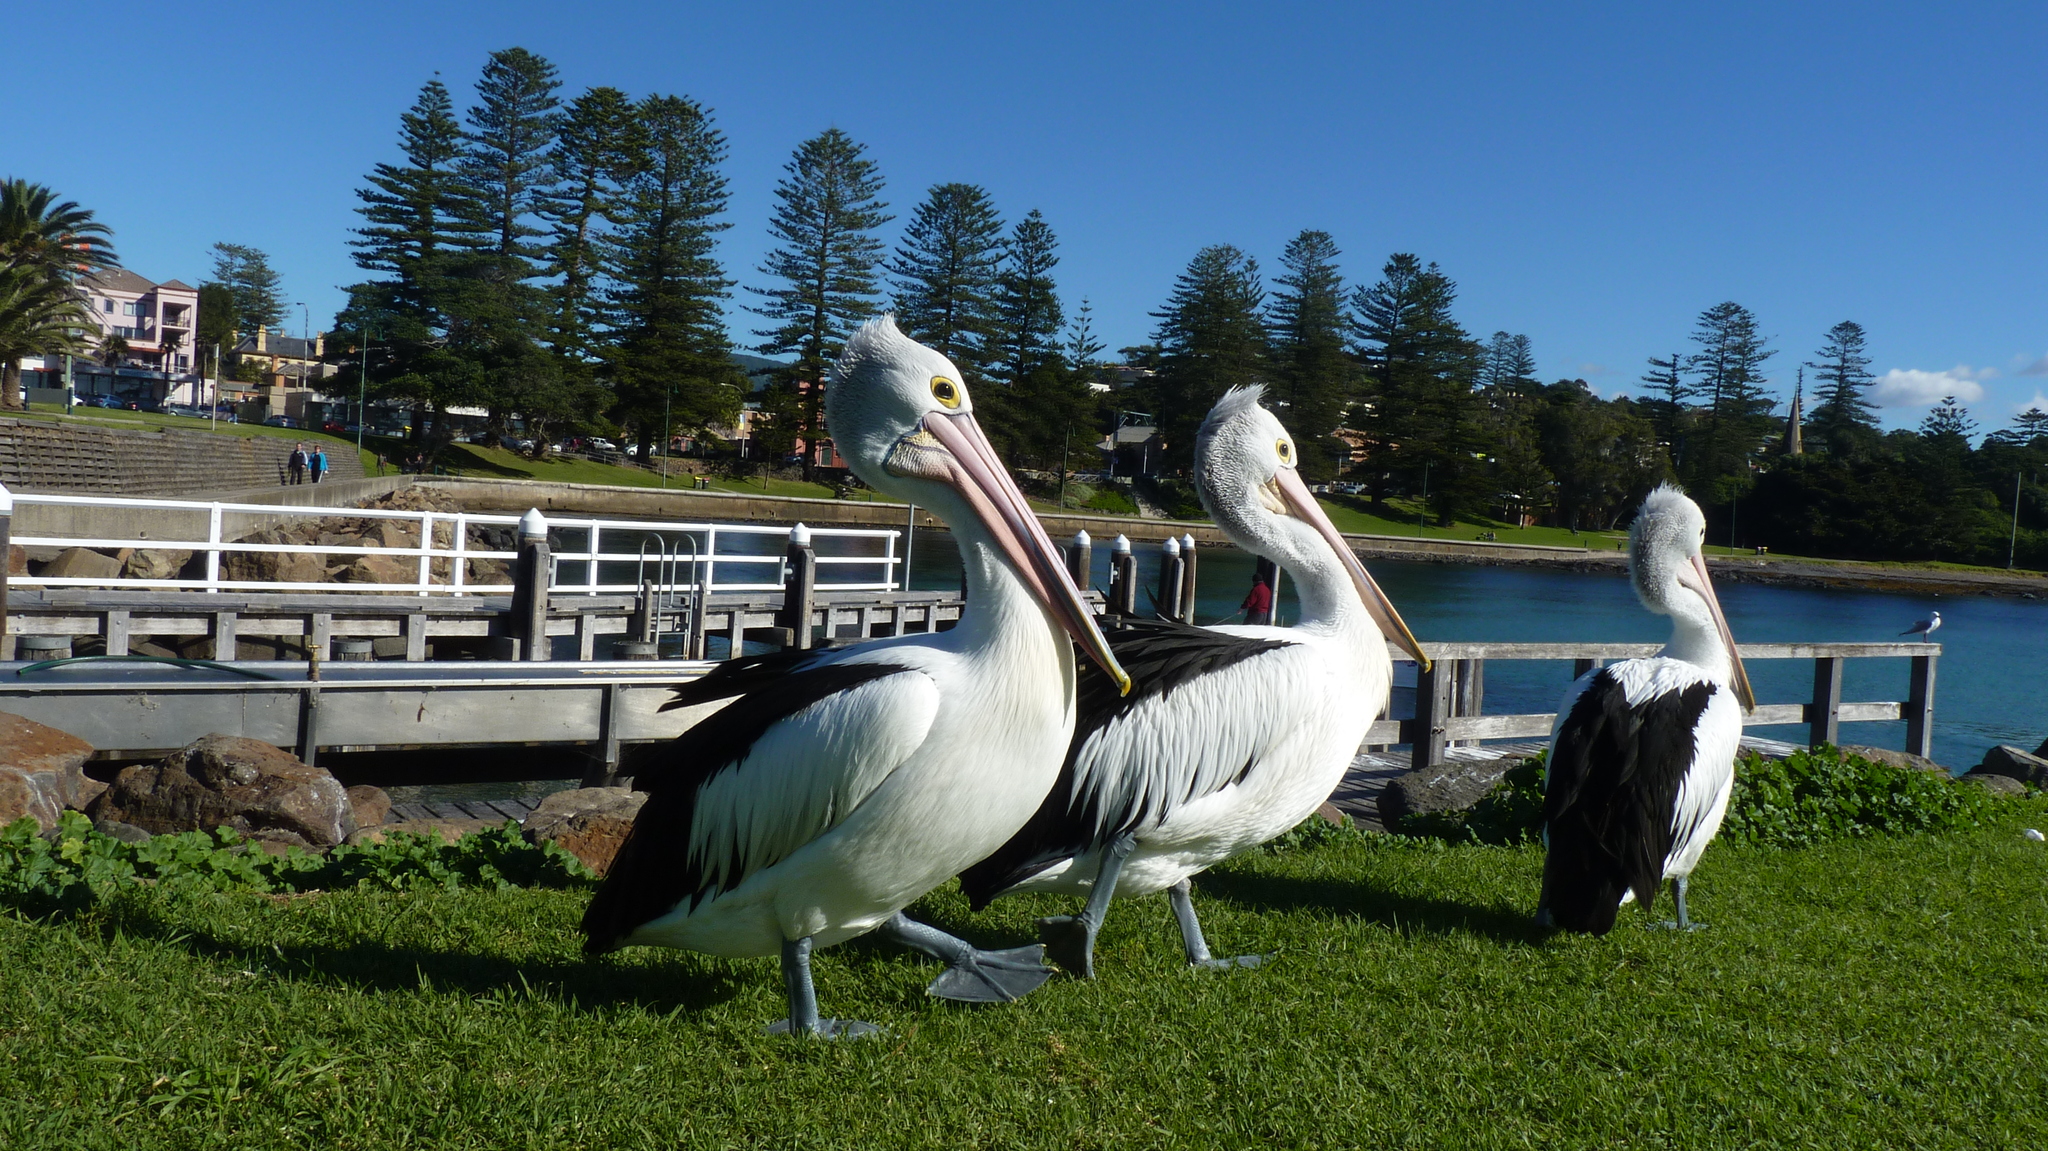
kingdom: Animalia
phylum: Chordata
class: Aves
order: Pelecaniformes
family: Pelecanidae
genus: Pelecanus
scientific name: Pelecanus conspicillatus
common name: Australian pelican
